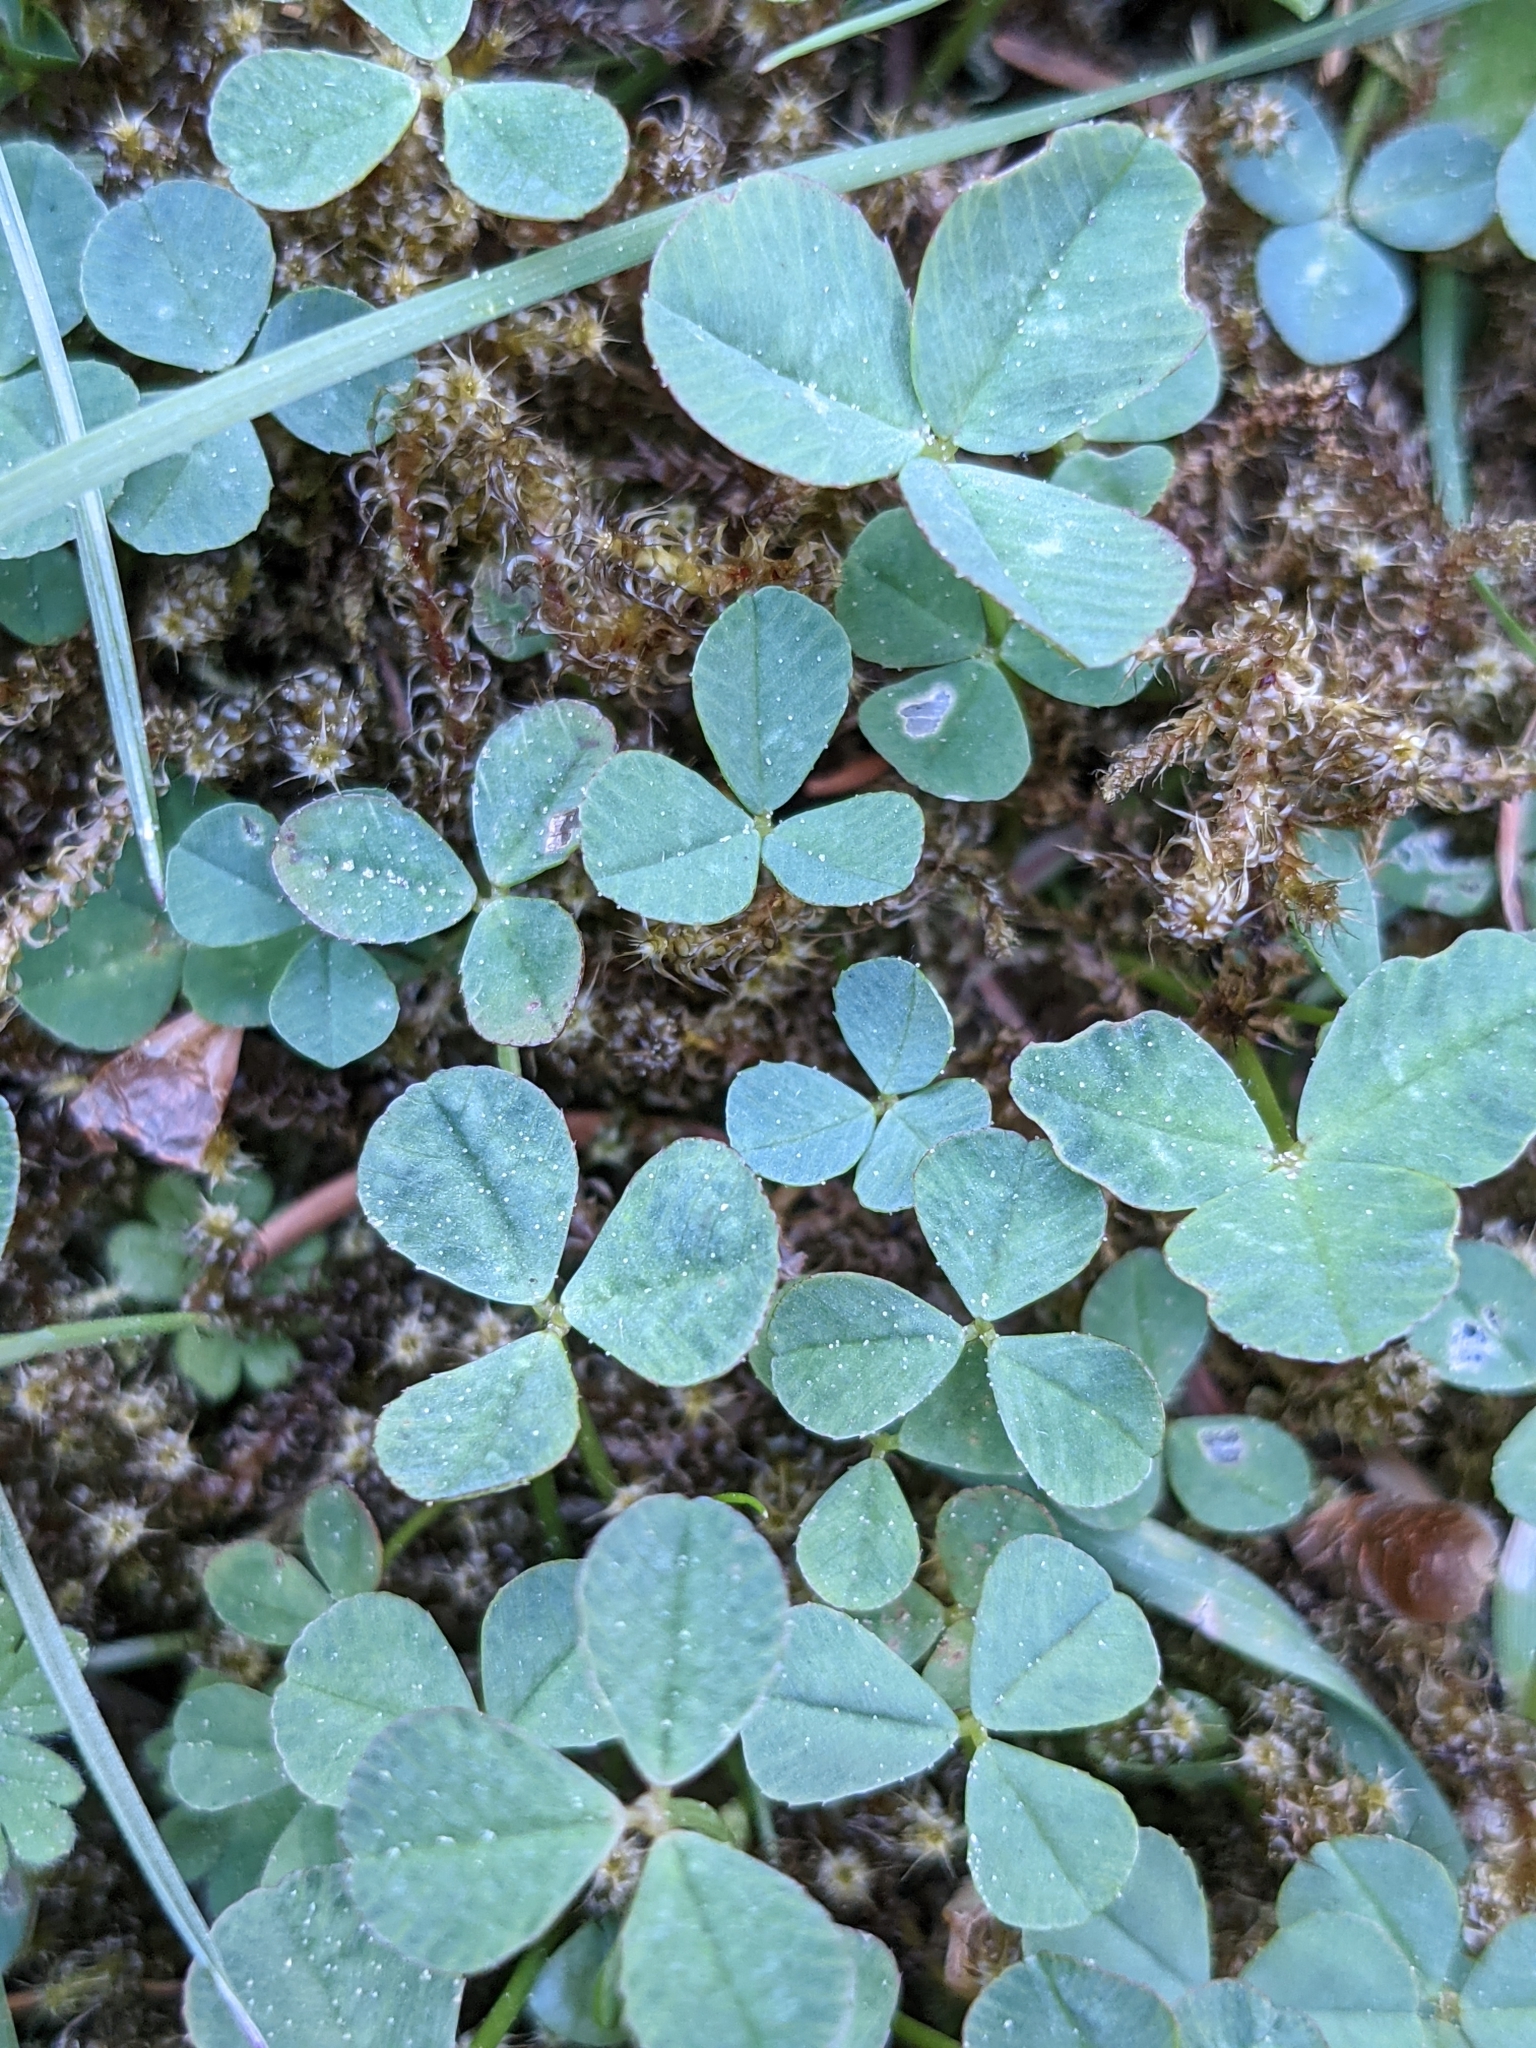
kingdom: Plantae
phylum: Tracheophyta
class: Magnoliopsida
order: Fabales
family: Fabaceae
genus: Trifolium
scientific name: Trifolium repens
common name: White clover
